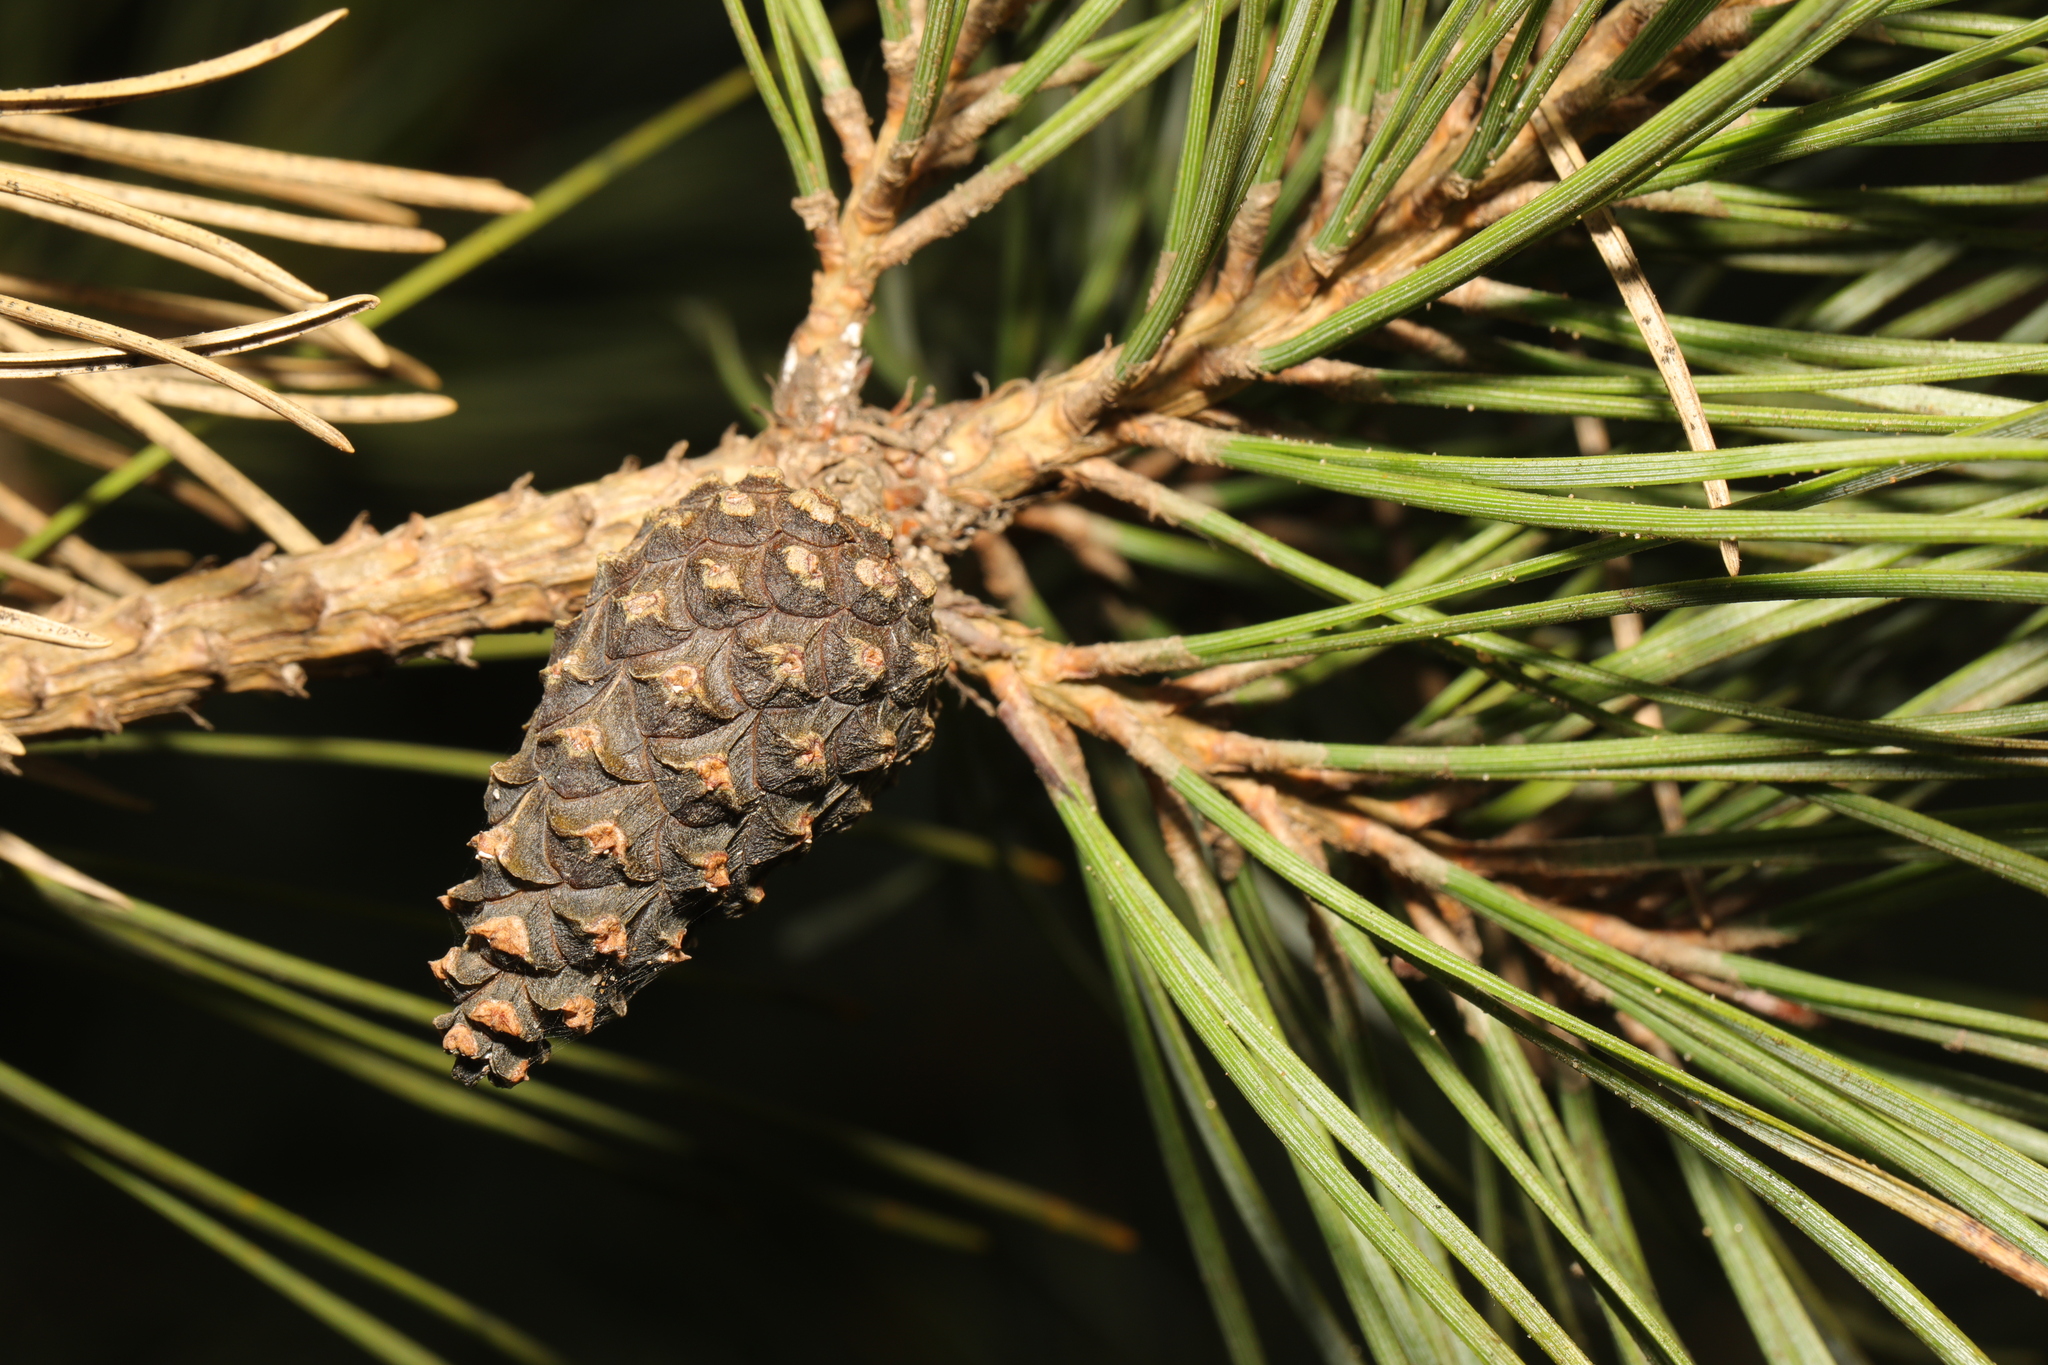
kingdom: Plantae
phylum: Tracheophyta
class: Pinopsida
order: Pinales
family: Pinaceae
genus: Pinus
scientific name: Pinus sylvestris
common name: Scots pine
